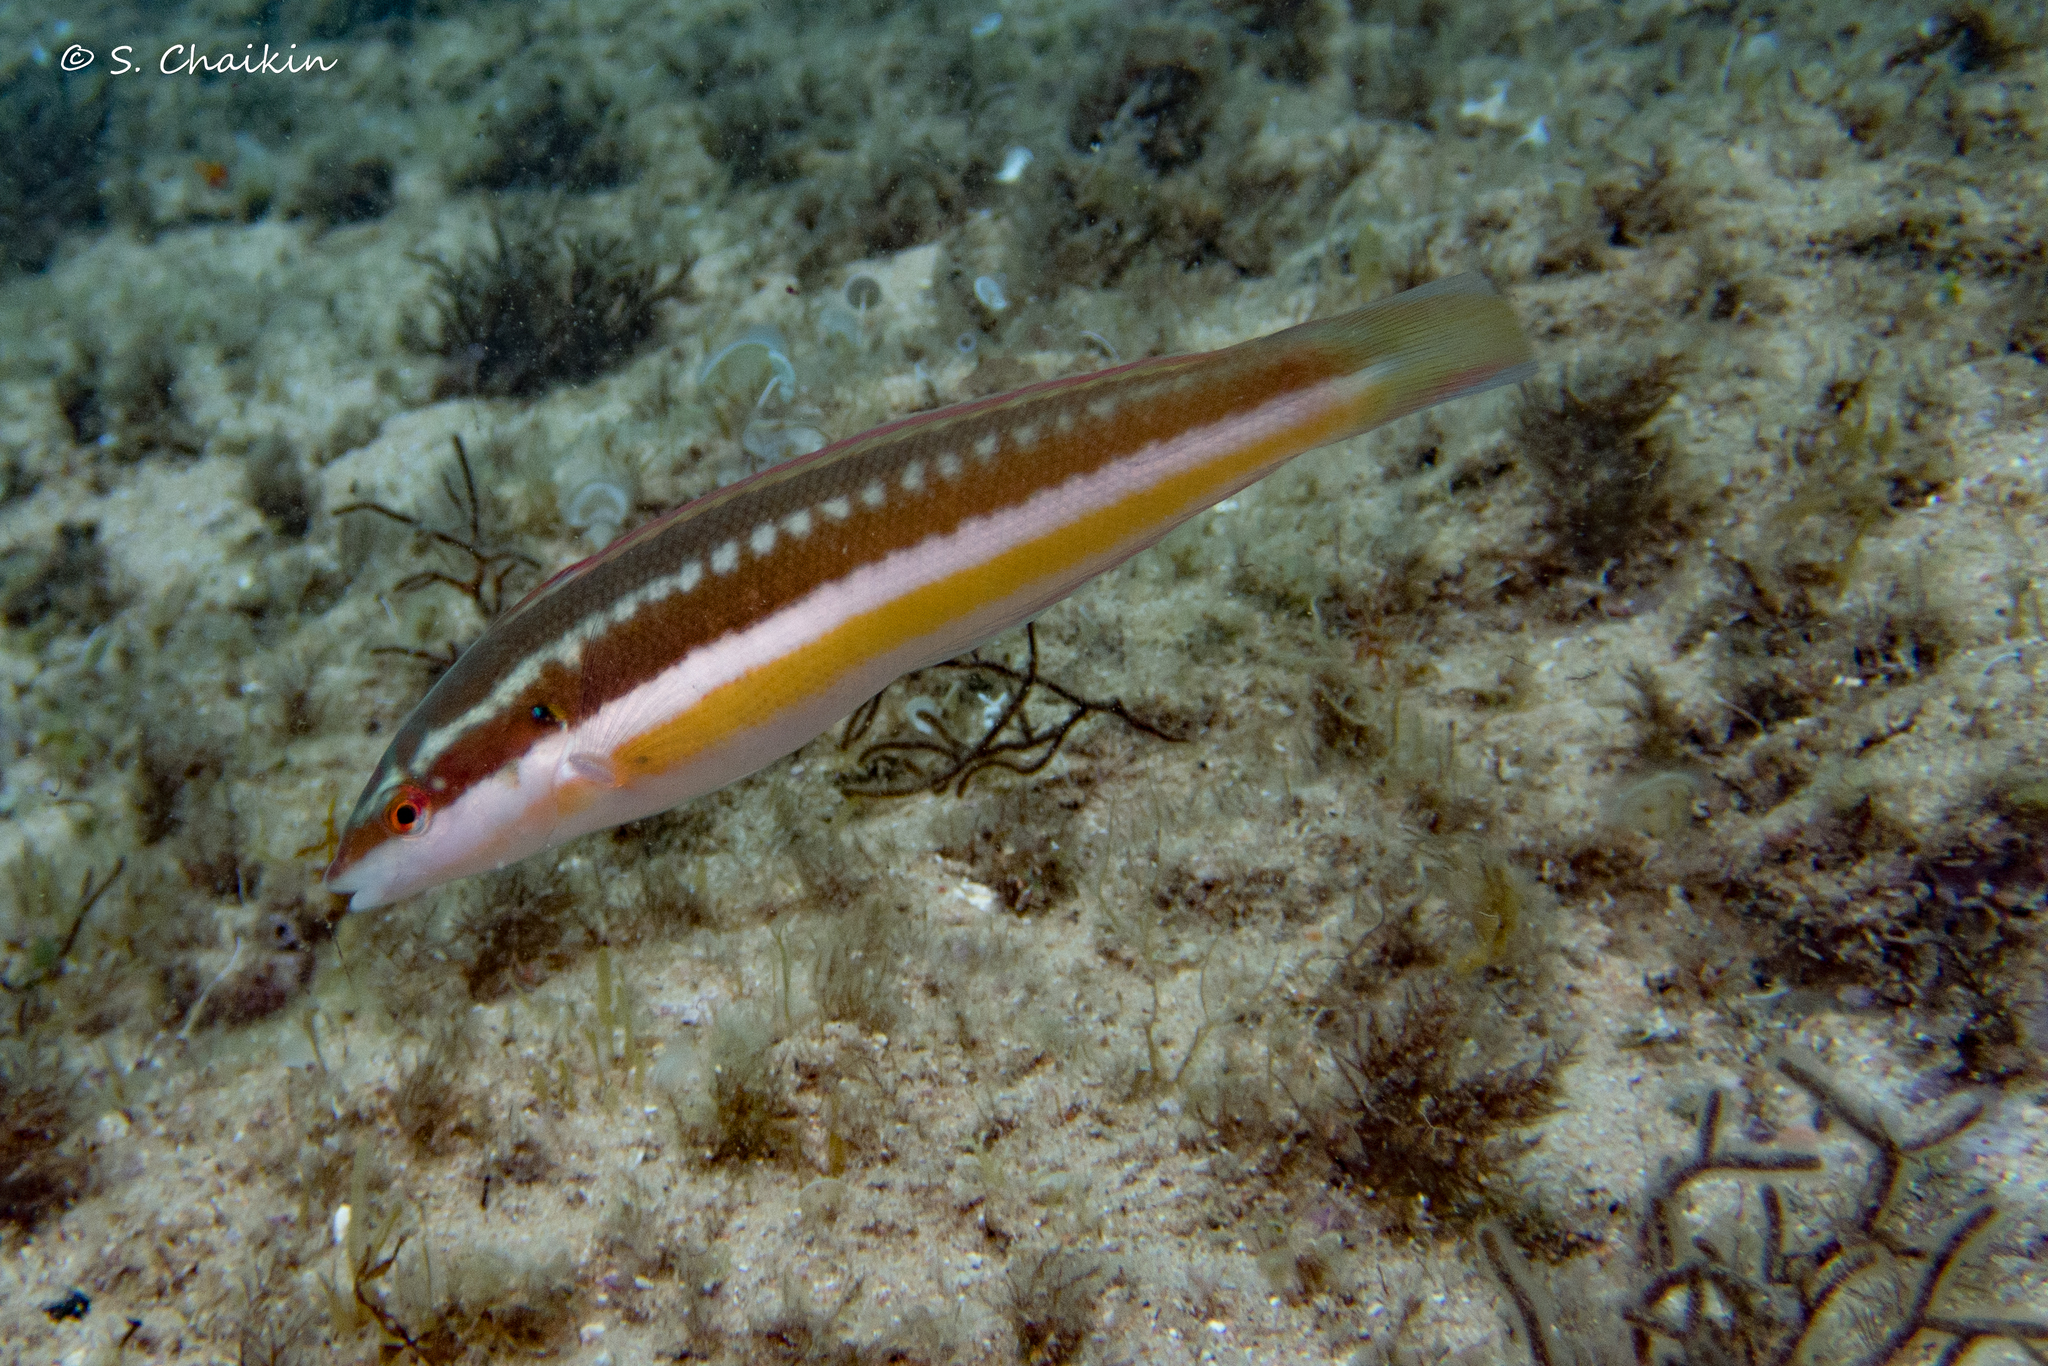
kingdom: Animalia
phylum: Chordata
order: Perciformes
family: Labridae
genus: Coris
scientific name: Coris julis
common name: Rainbow wrasse
